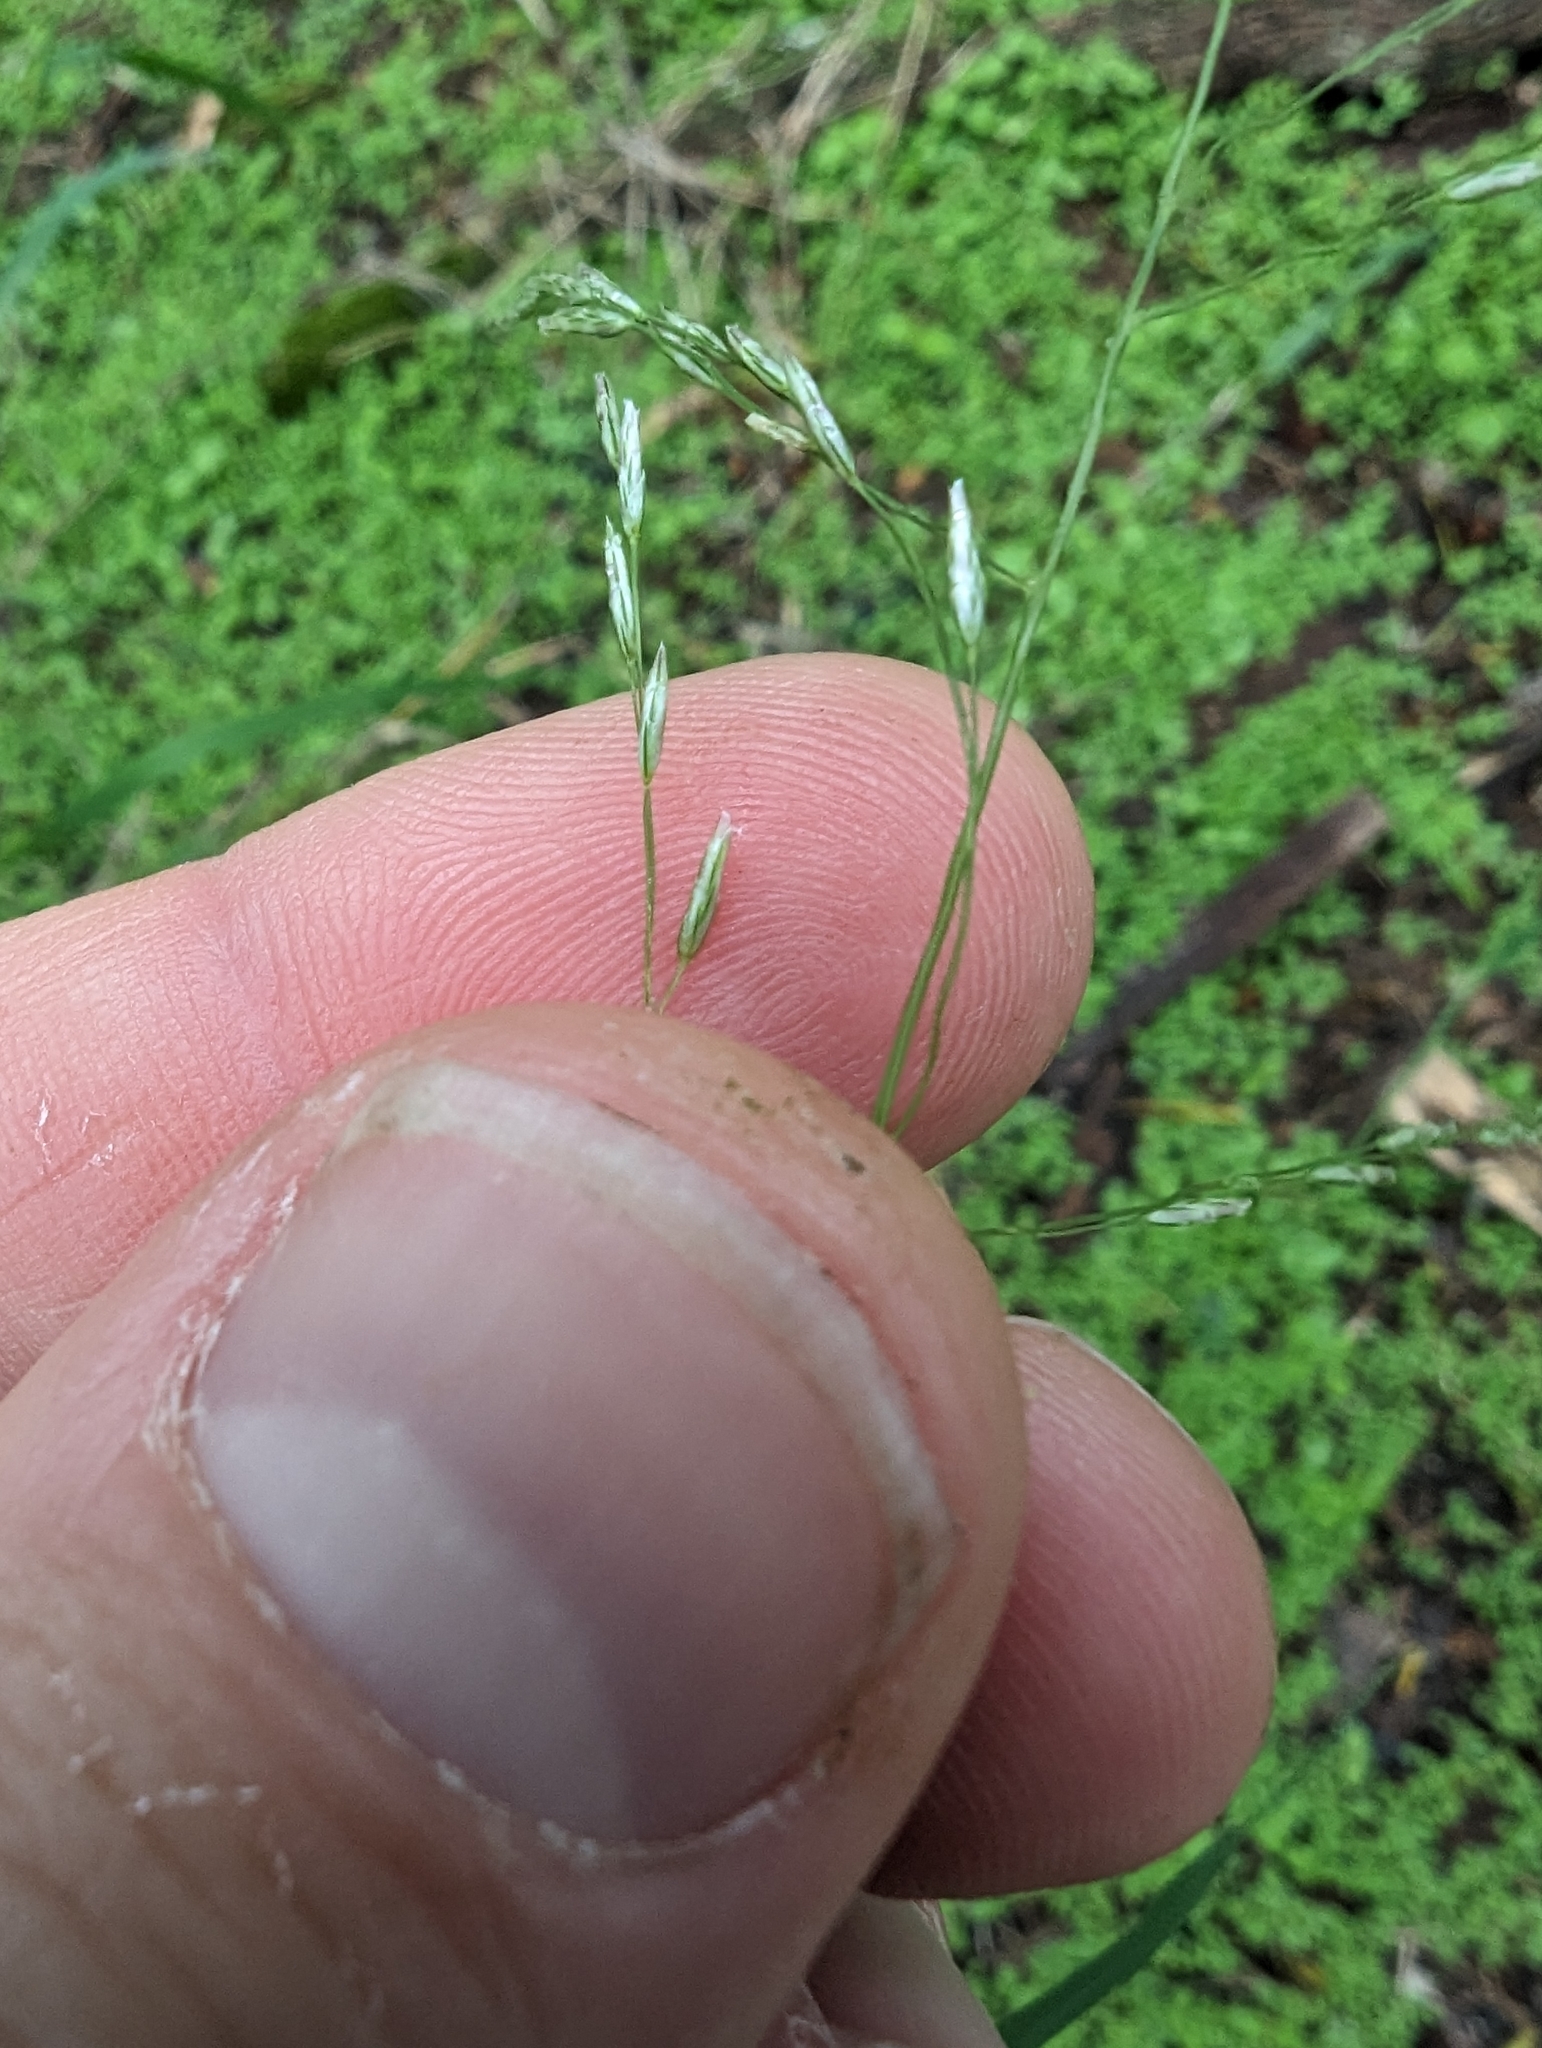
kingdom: Plantae
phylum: Tracheophyta
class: Liliopsida
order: Poales
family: Poaceae
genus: Triplasiella
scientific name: Triplasiella eragrostoides
